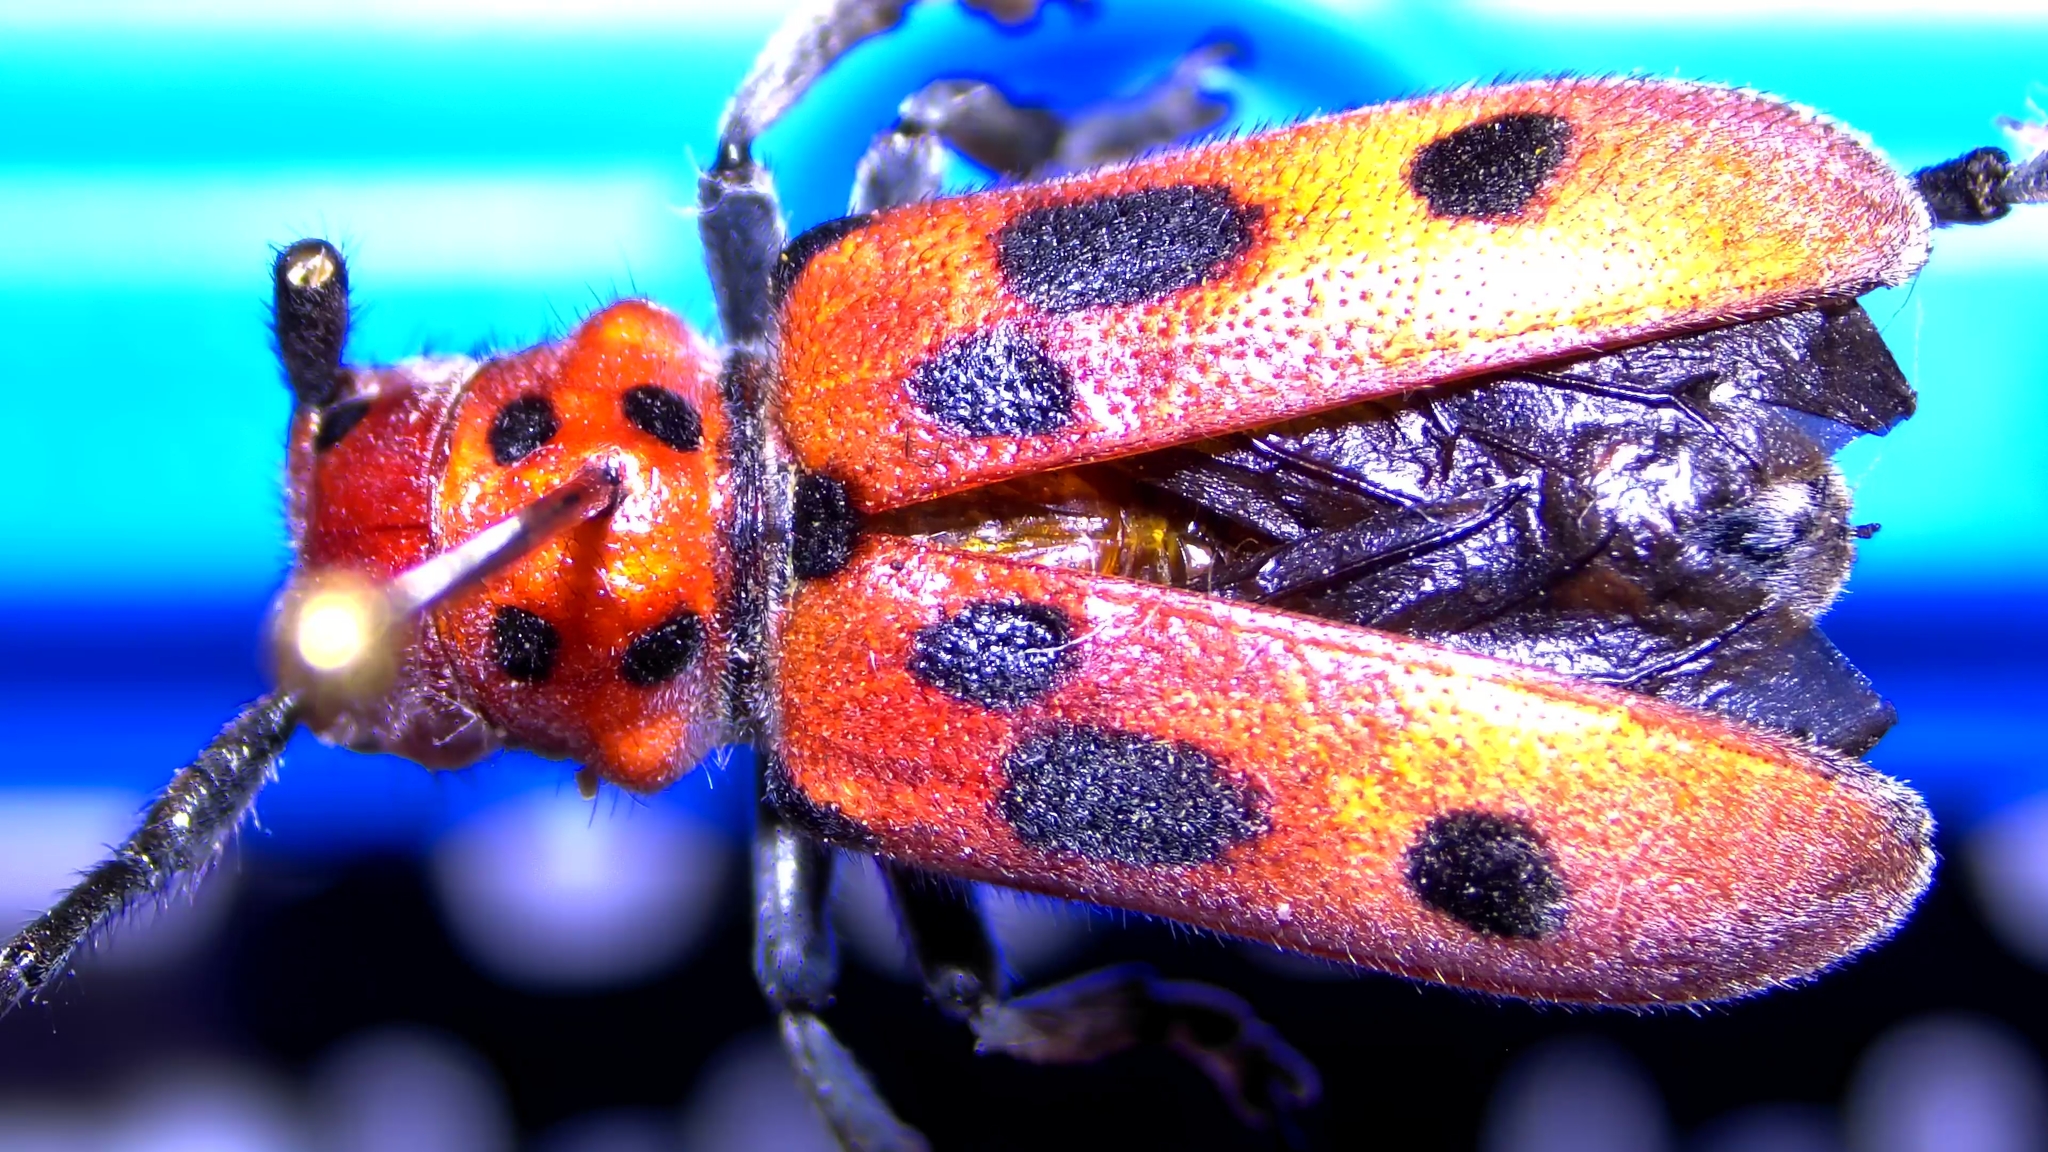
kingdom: Animalia
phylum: Arthropoda
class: Insecta
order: Coleoptera
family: Cerambycidae
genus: Tetraopes
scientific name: Tetraopes tetrophthalmus
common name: Red milkweed beetle
